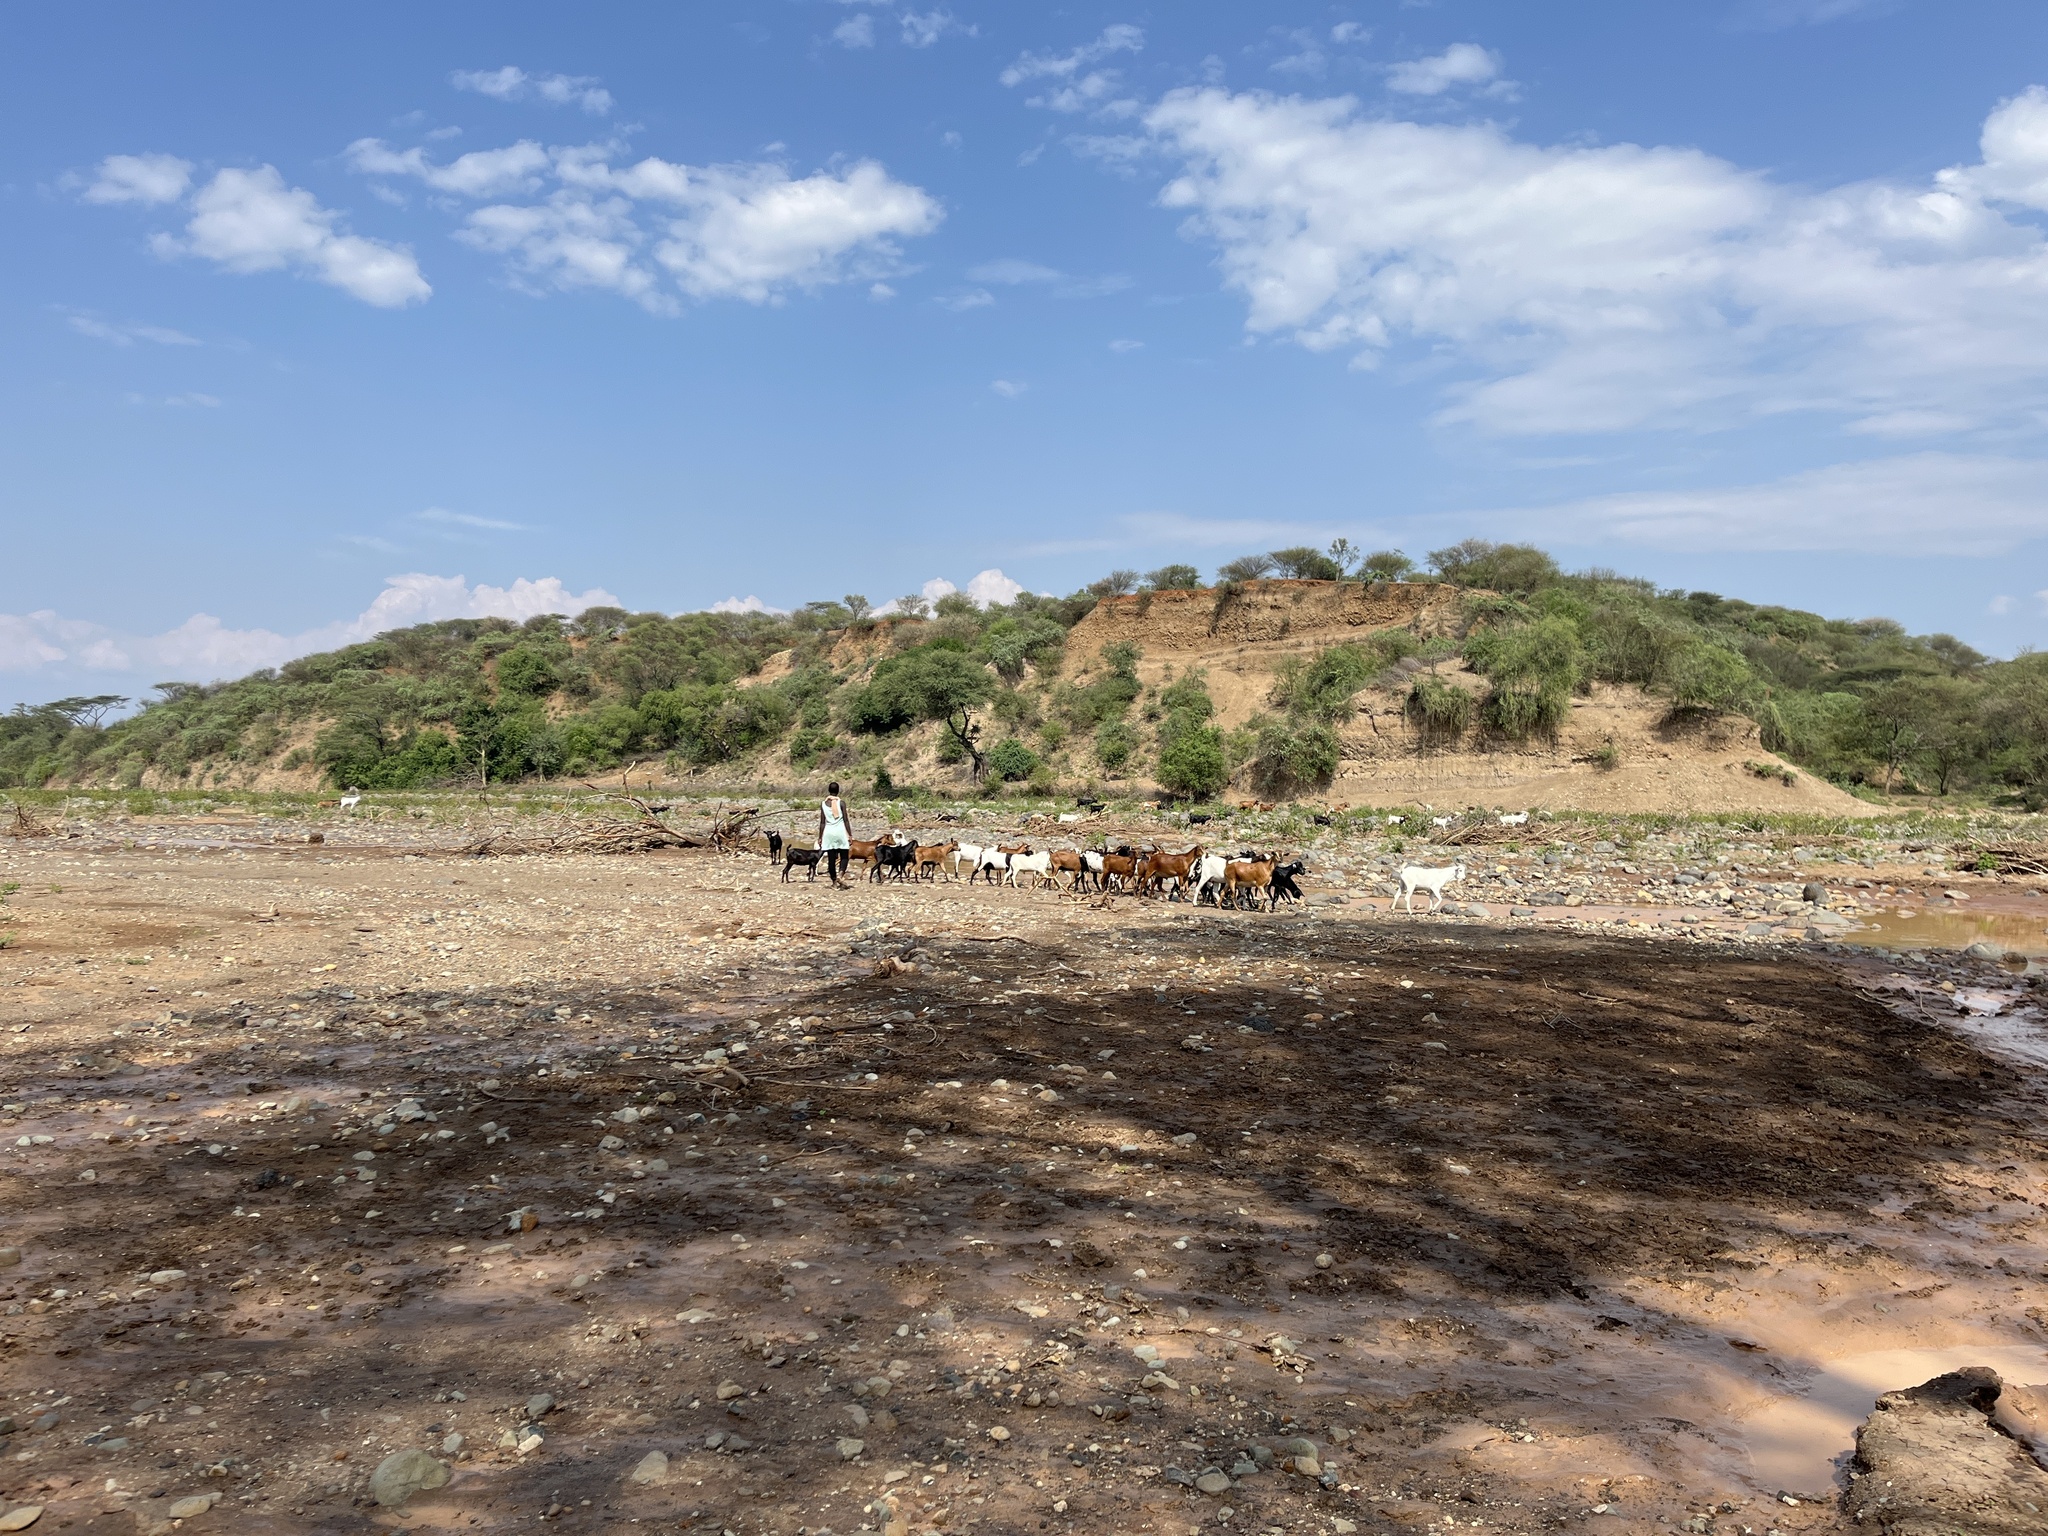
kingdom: Animalia
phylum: Chordata
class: Mammalia
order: Artiodactyla
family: Bovidae
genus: Capra
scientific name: Capra hircus
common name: Domestic goat
